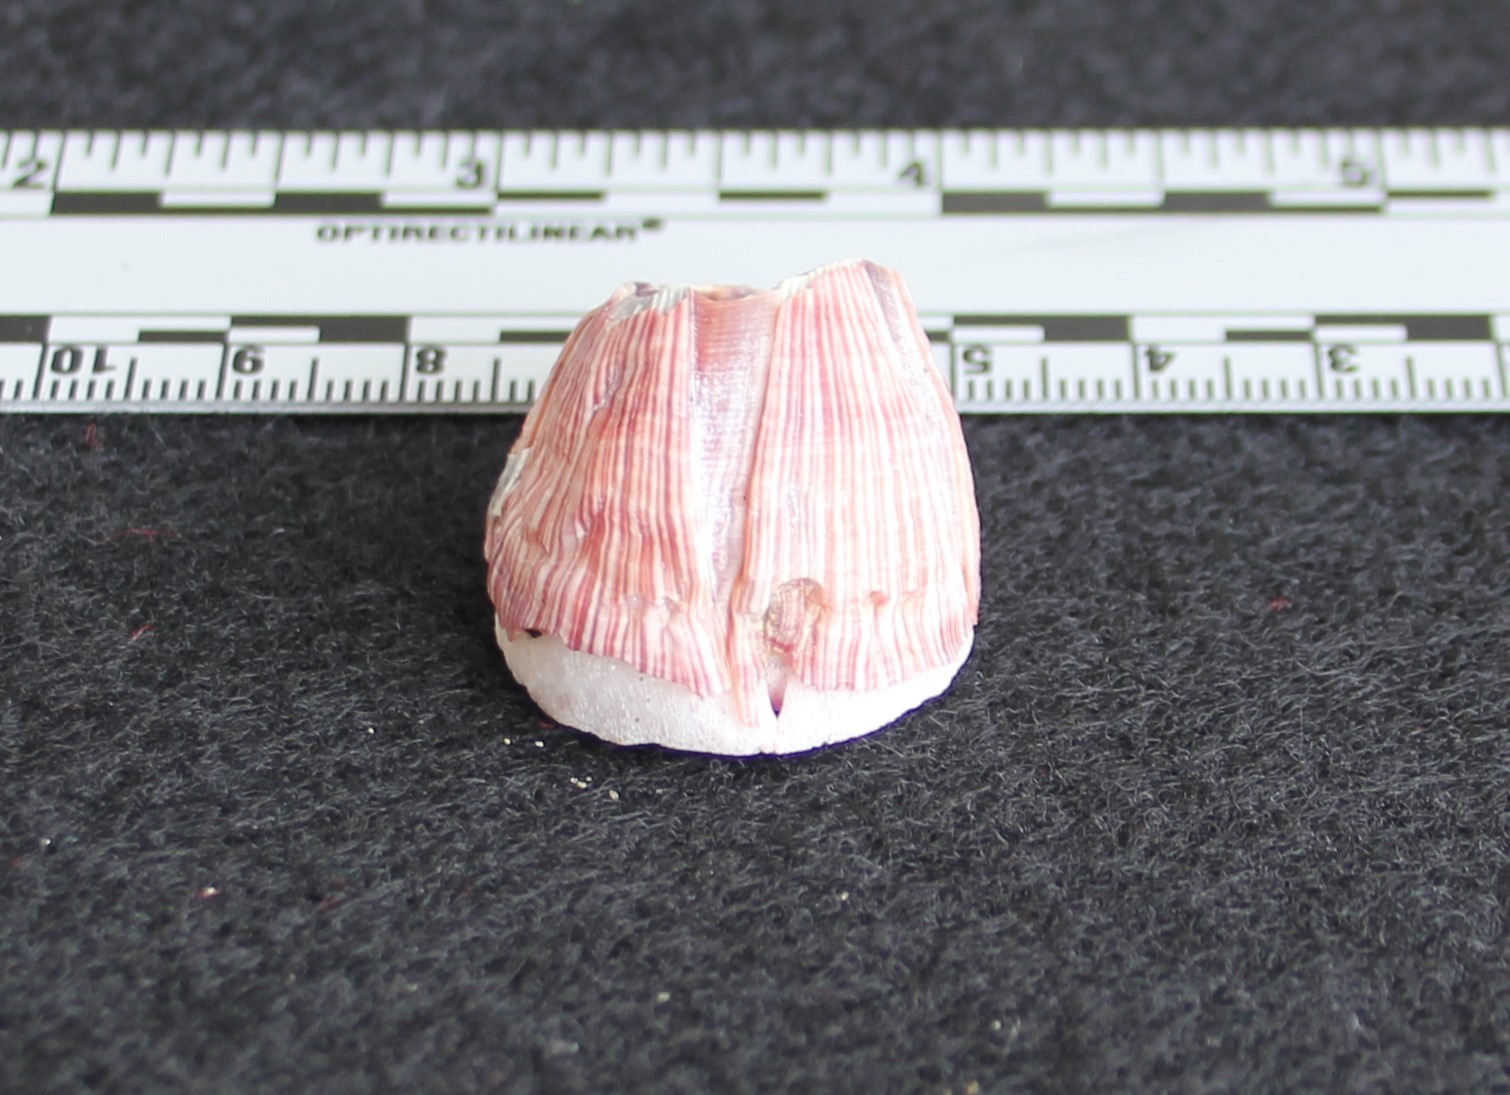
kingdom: Animalia
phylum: Arthropoda
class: Maxillopoda
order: Sessilia
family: Balanidae
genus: Megabalanus
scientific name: Megabalanus californicus
